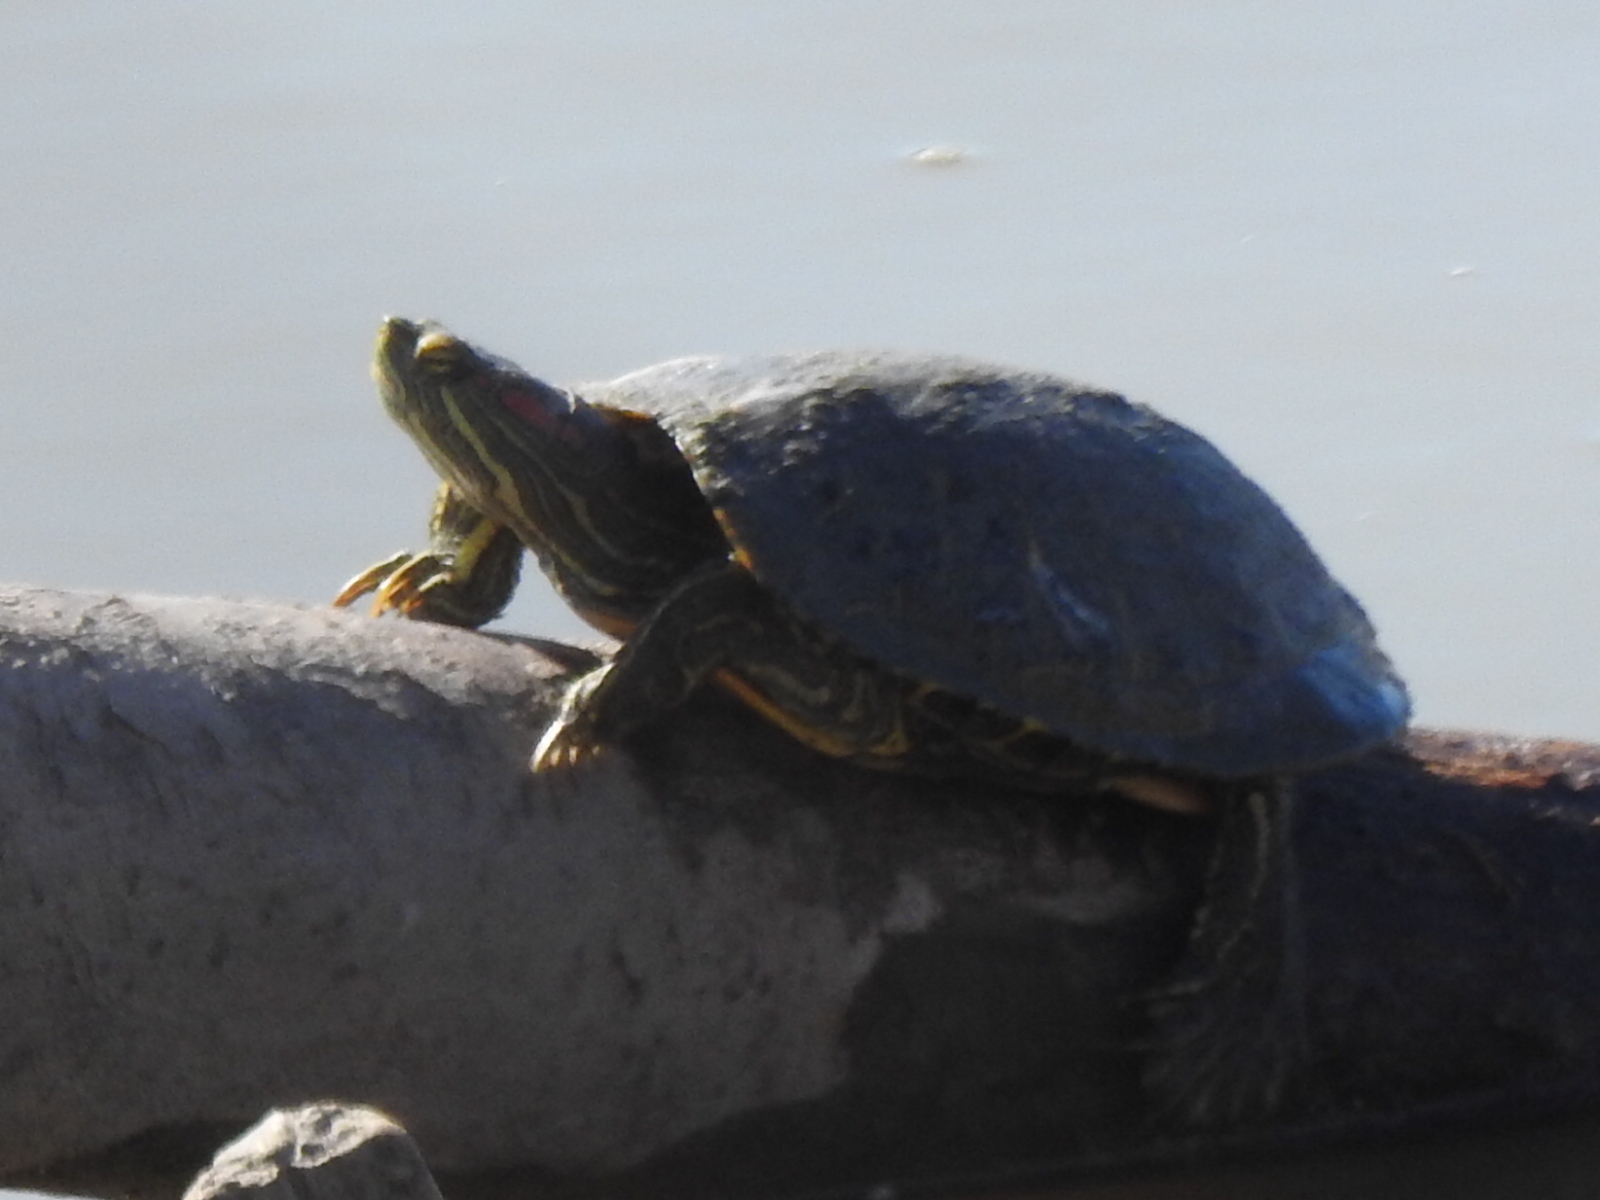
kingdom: Animalia
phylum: Chordata
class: Testudines
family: Emydidae
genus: Trachemys
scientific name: Trachemys scripta
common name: Slider
